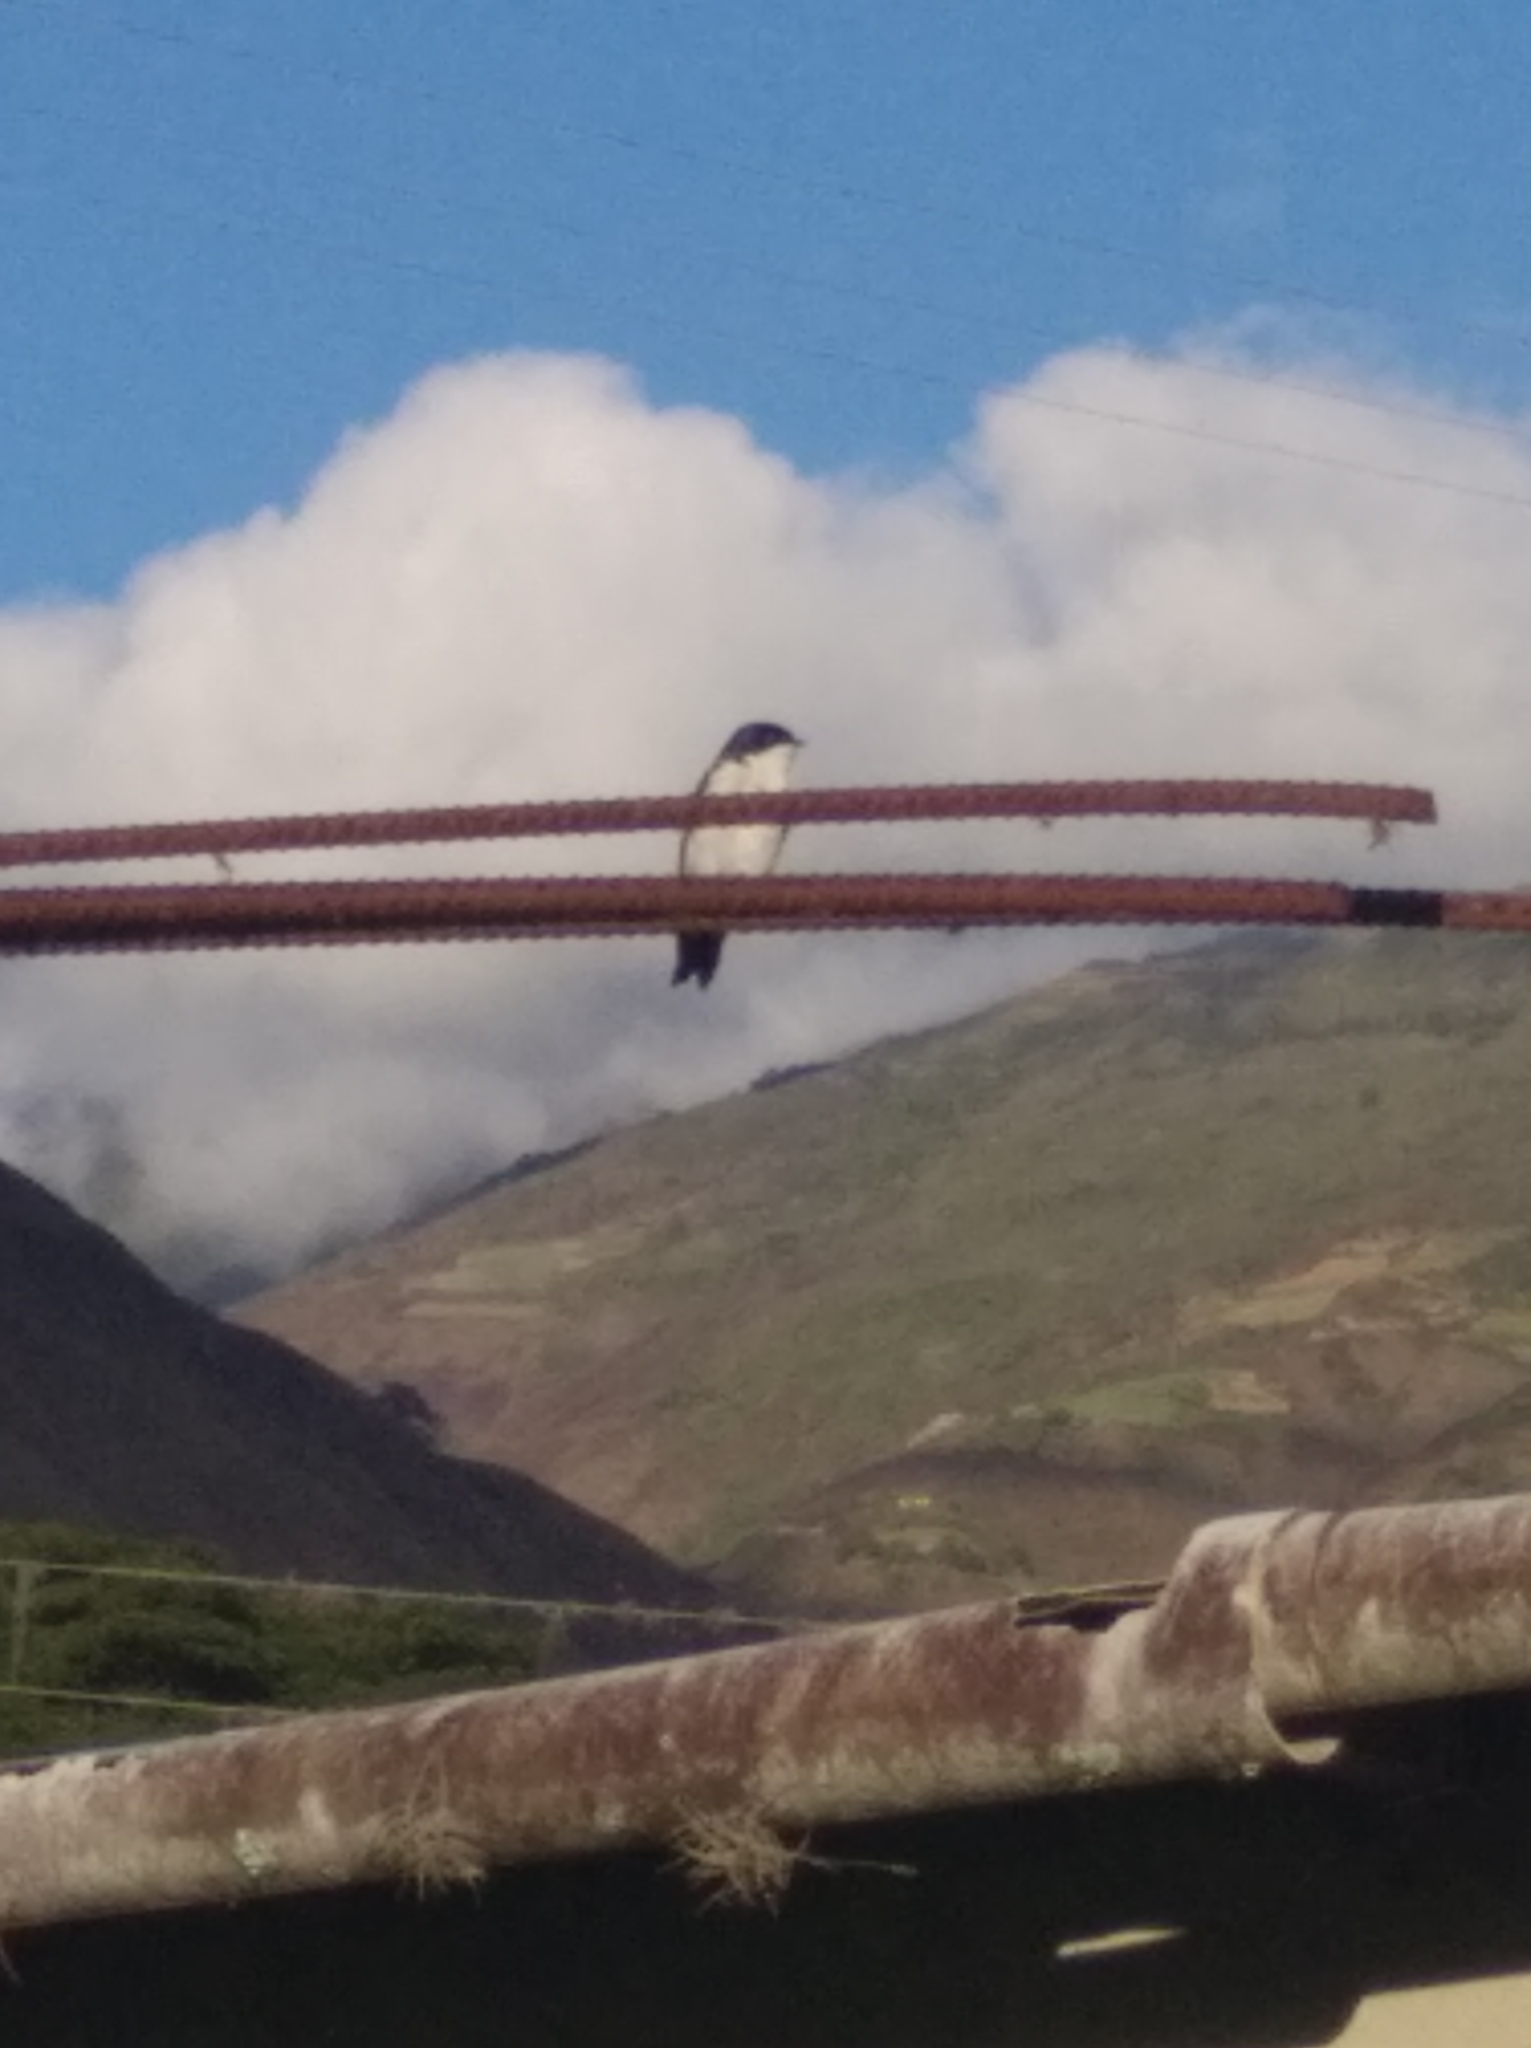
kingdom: Animalia
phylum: Chordata
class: Aves
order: Passeriformes
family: Hirundinidae
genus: Notiochelidon
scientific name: Notiochelidon cyanoleuca
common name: Blue-and-white swallow
